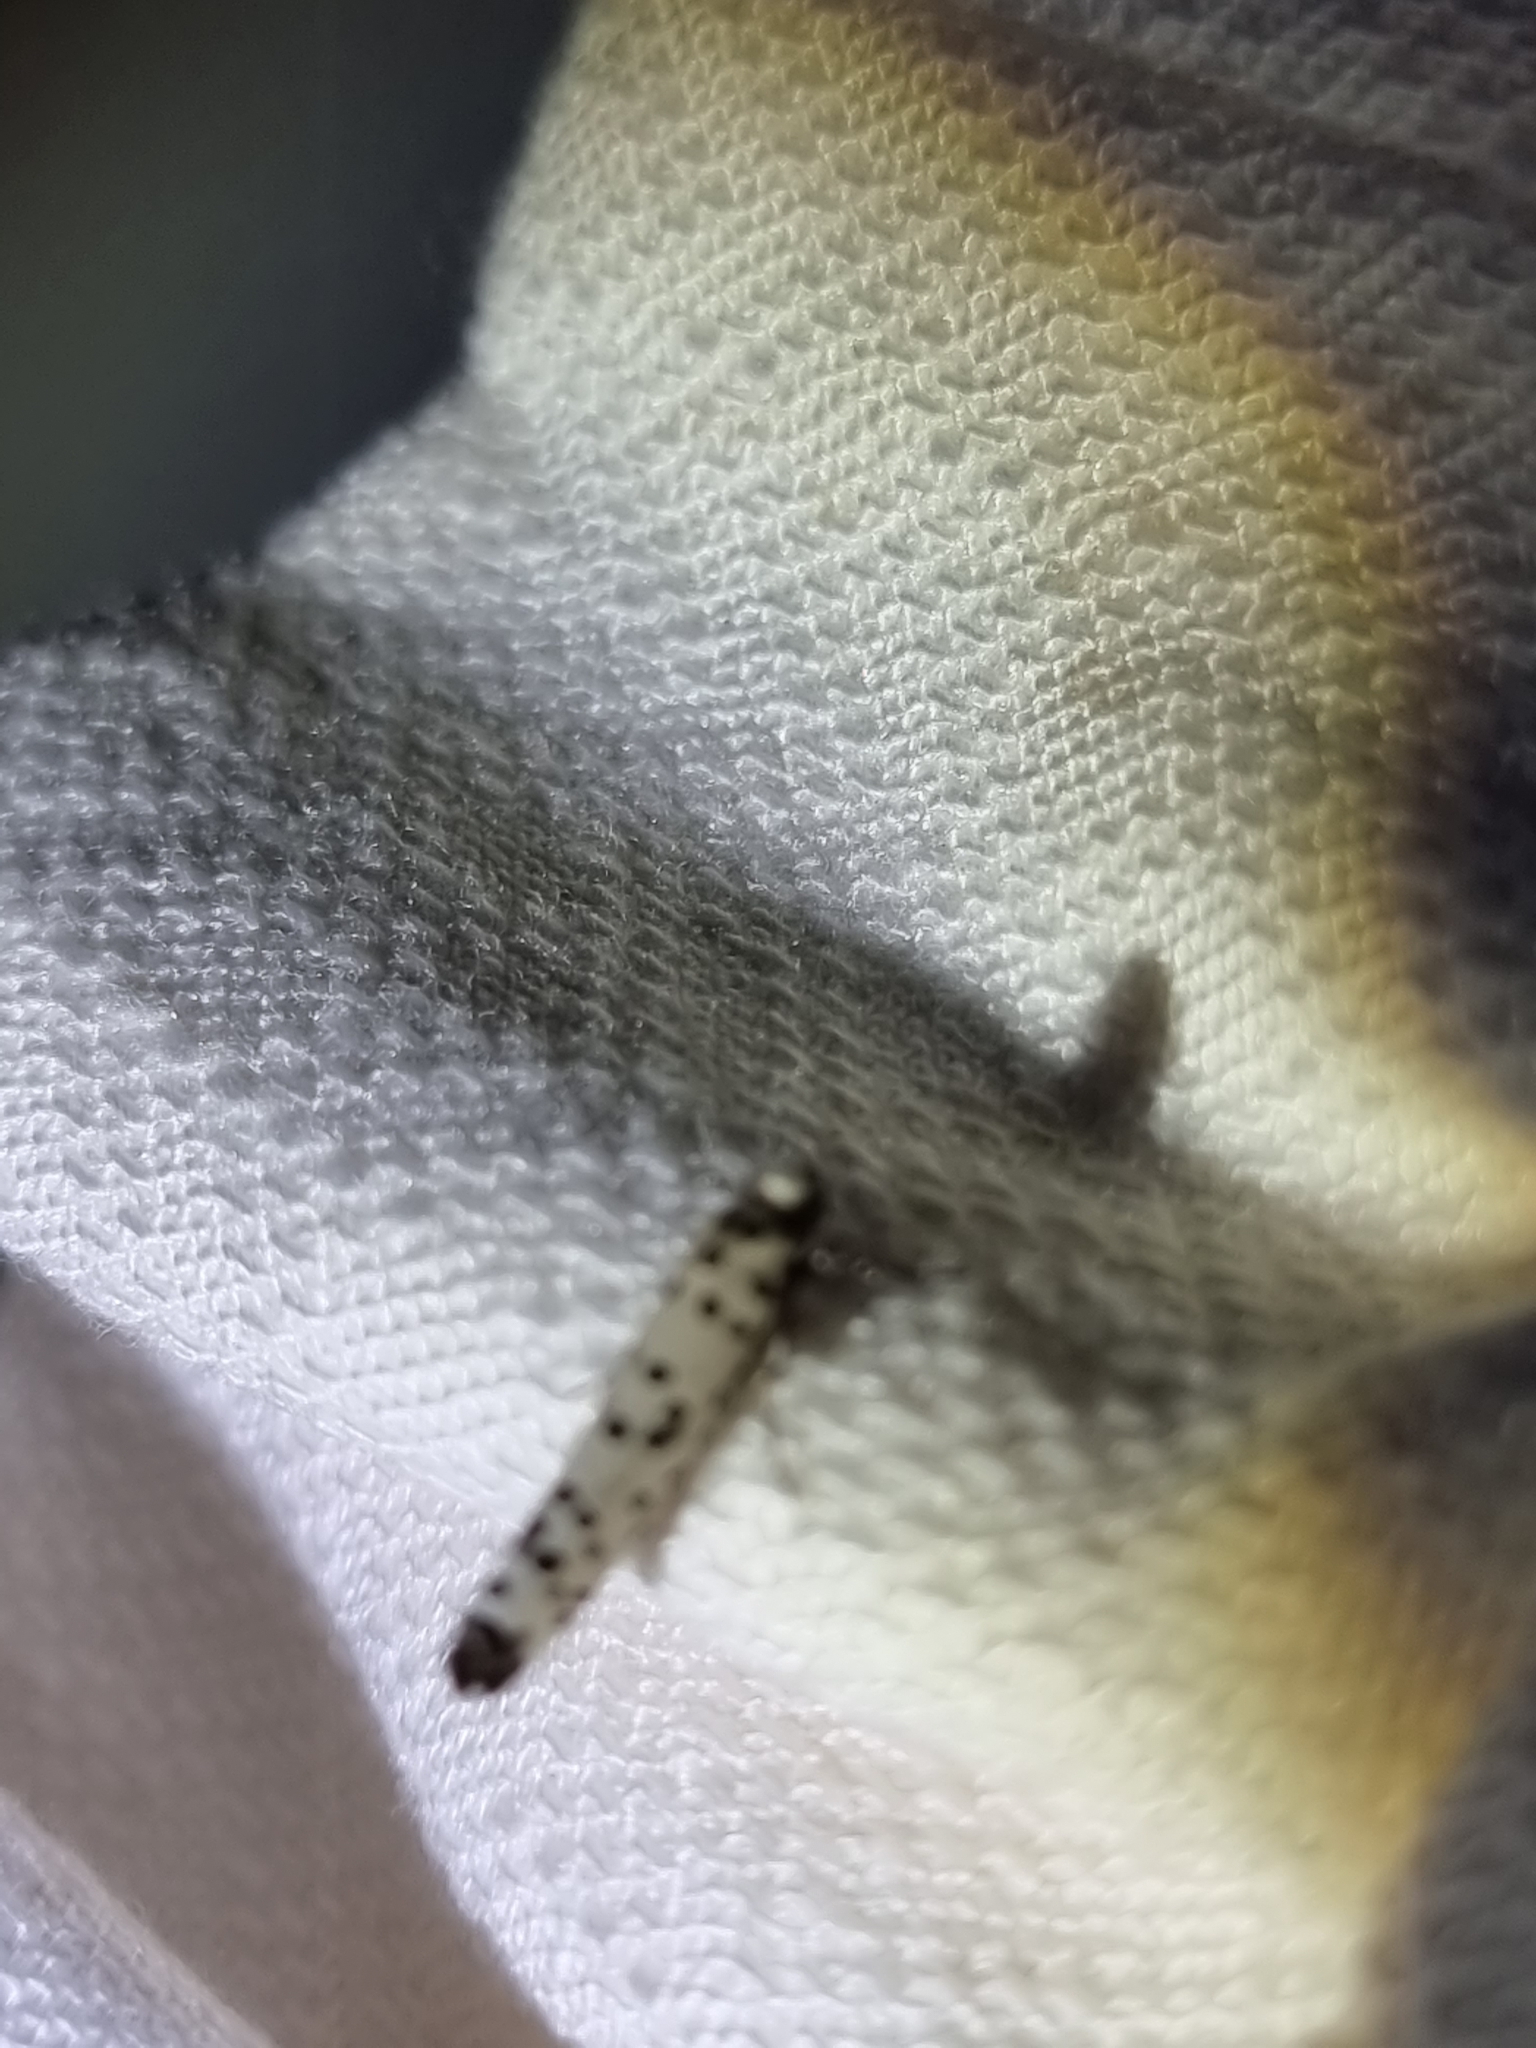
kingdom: Animalia
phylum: Arthropoda
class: Insecta
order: Lepidoptera
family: Yponomeutidae
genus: Yponomeuta
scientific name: Yponomeuta internellus
